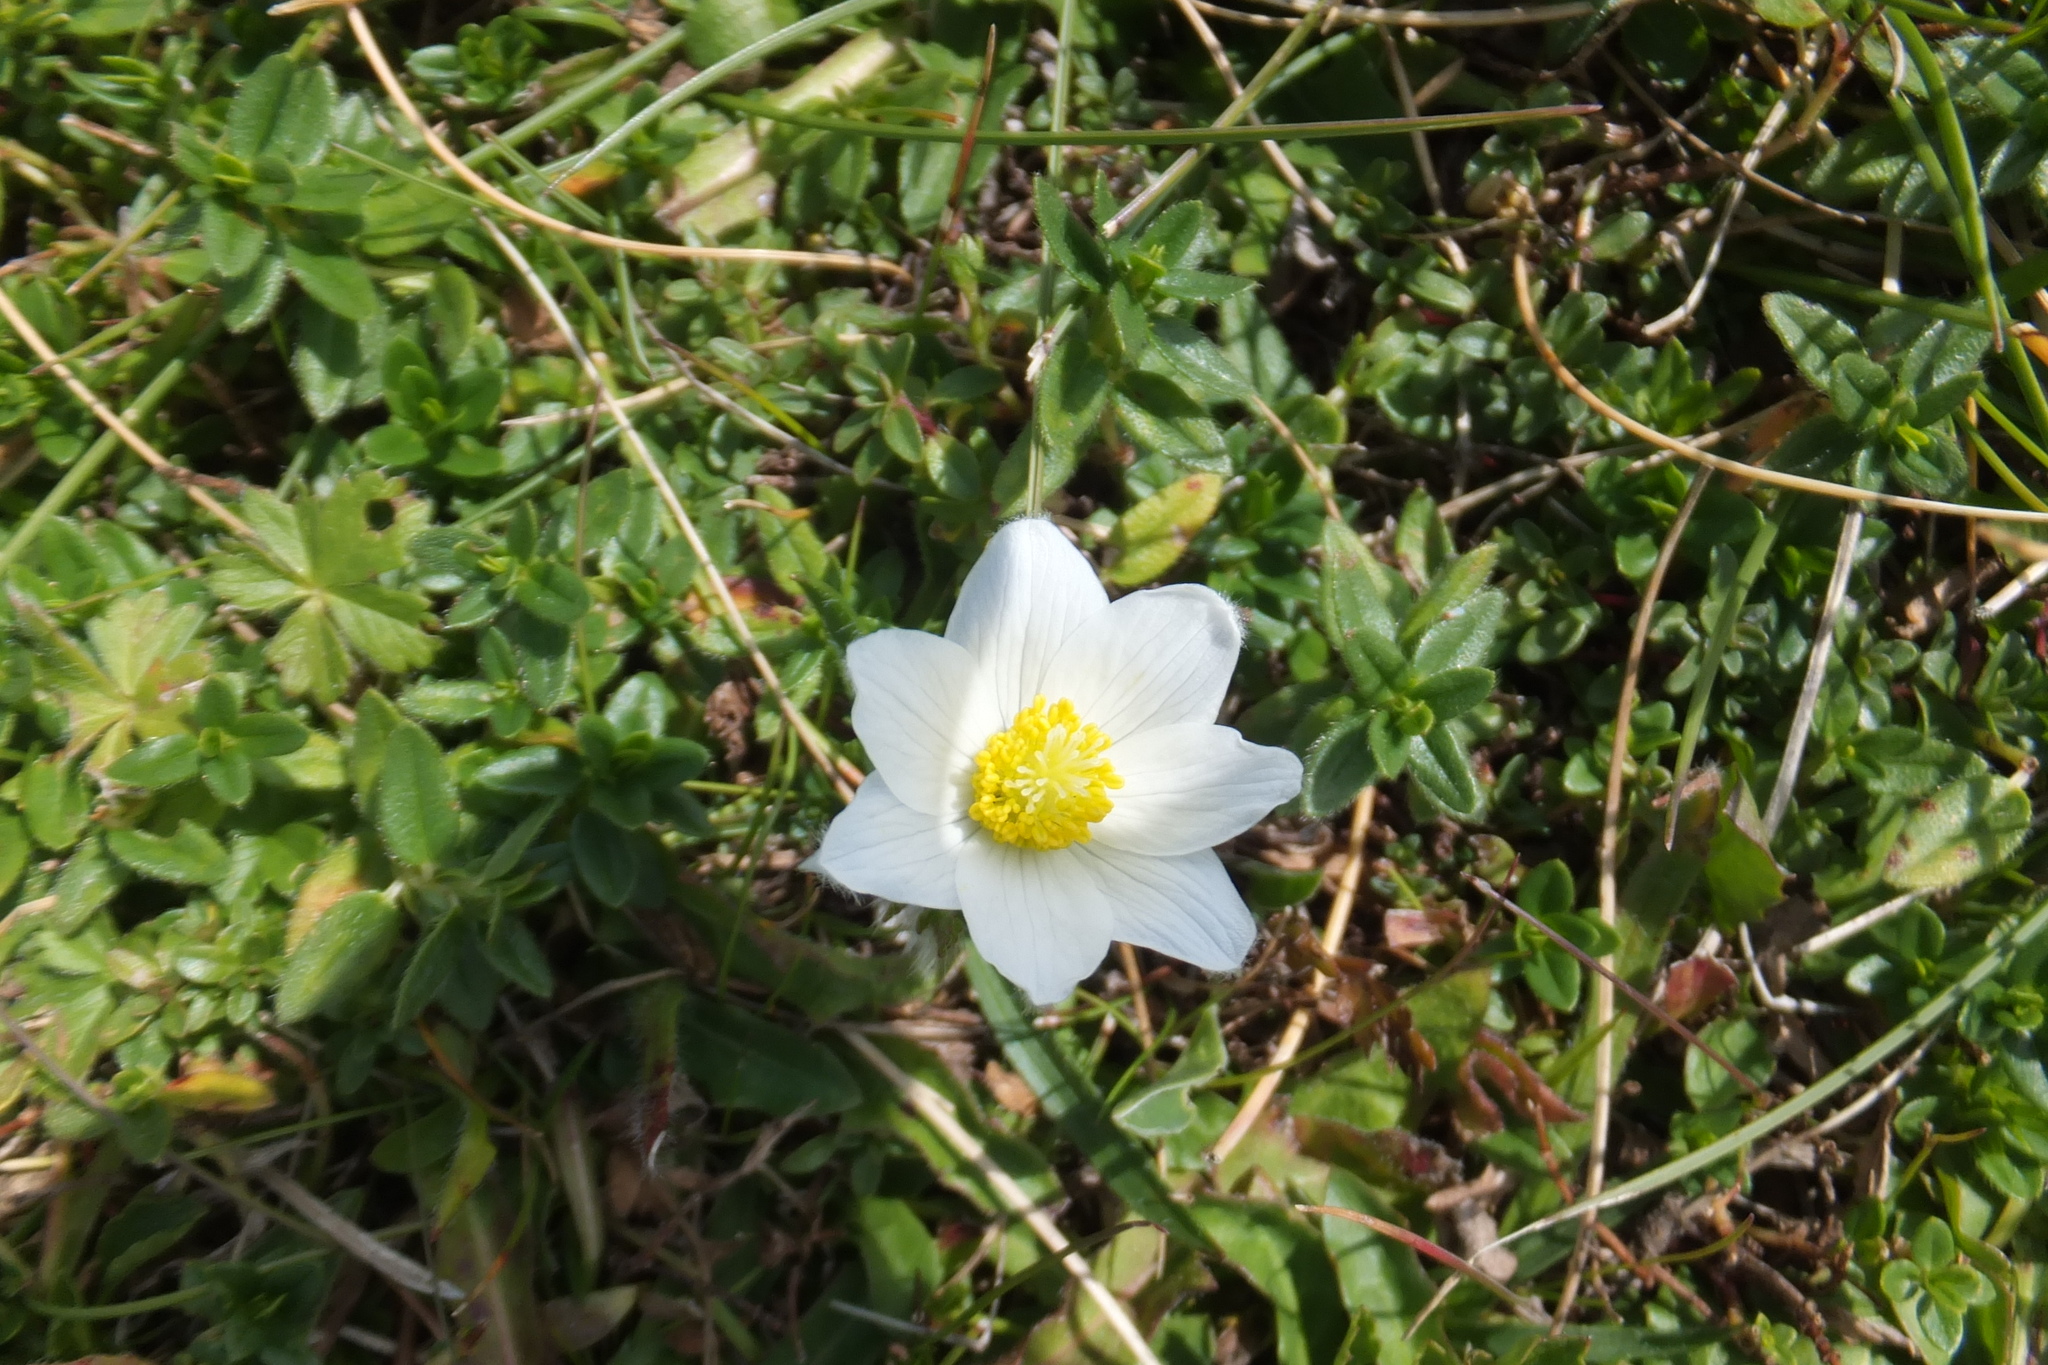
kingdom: Plantae
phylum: Tracheophyta
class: Magnoliopsida
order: Ranunculales
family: Ranunculaceae
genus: Pulsatilla
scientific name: Pulsatilla alpina
